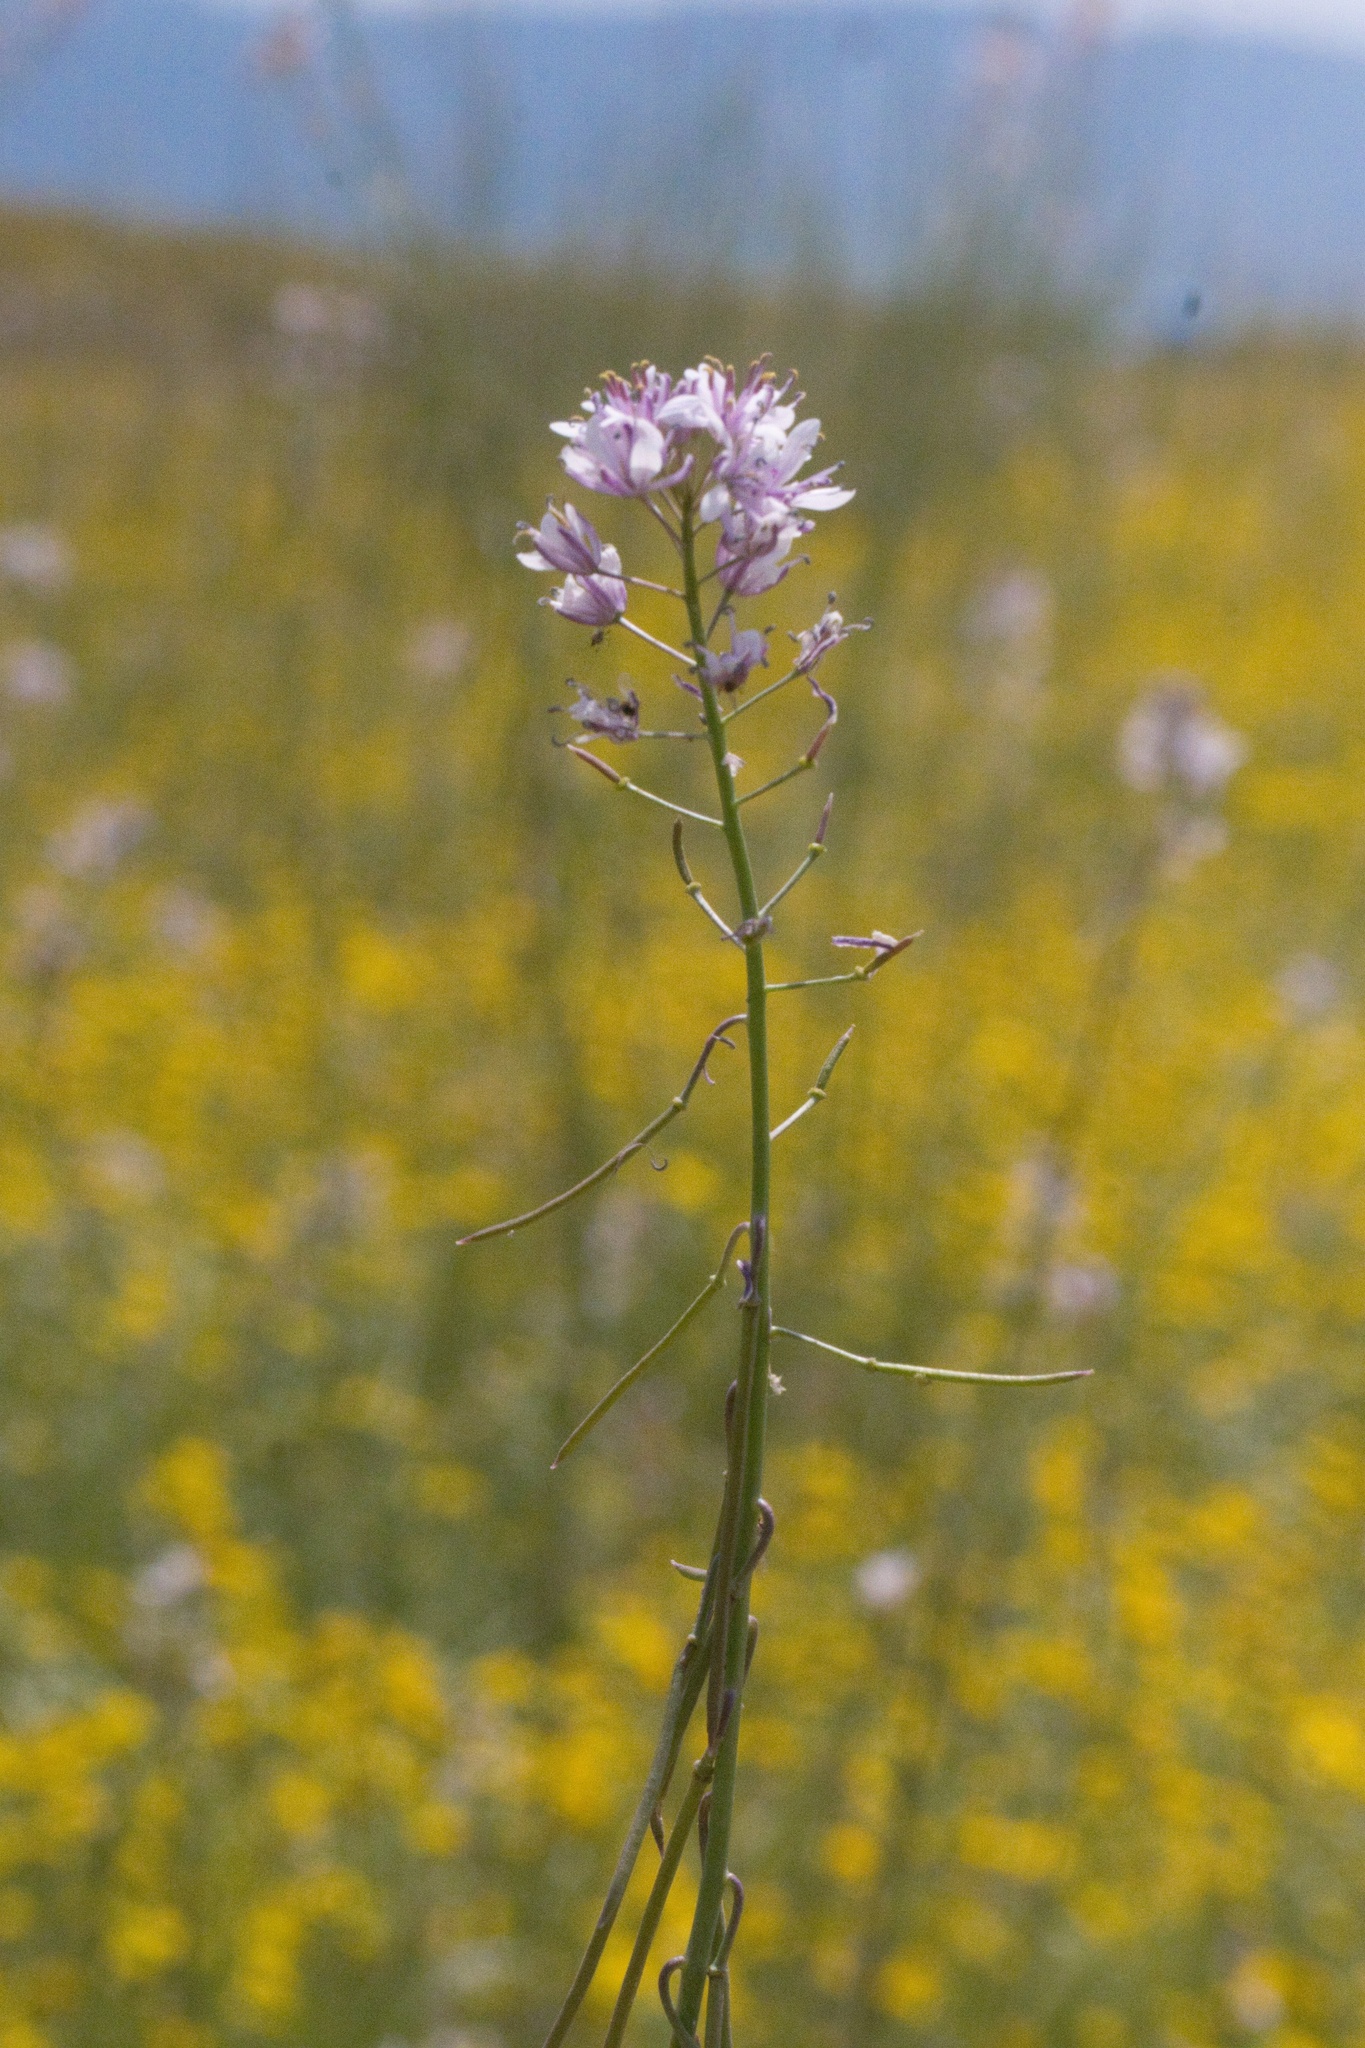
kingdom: Plantae
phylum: Tracheophyta
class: Magnoliopsida
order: Brassicales
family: Brassicaceae
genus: Streptanthus
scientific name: Streptanthus anceps
